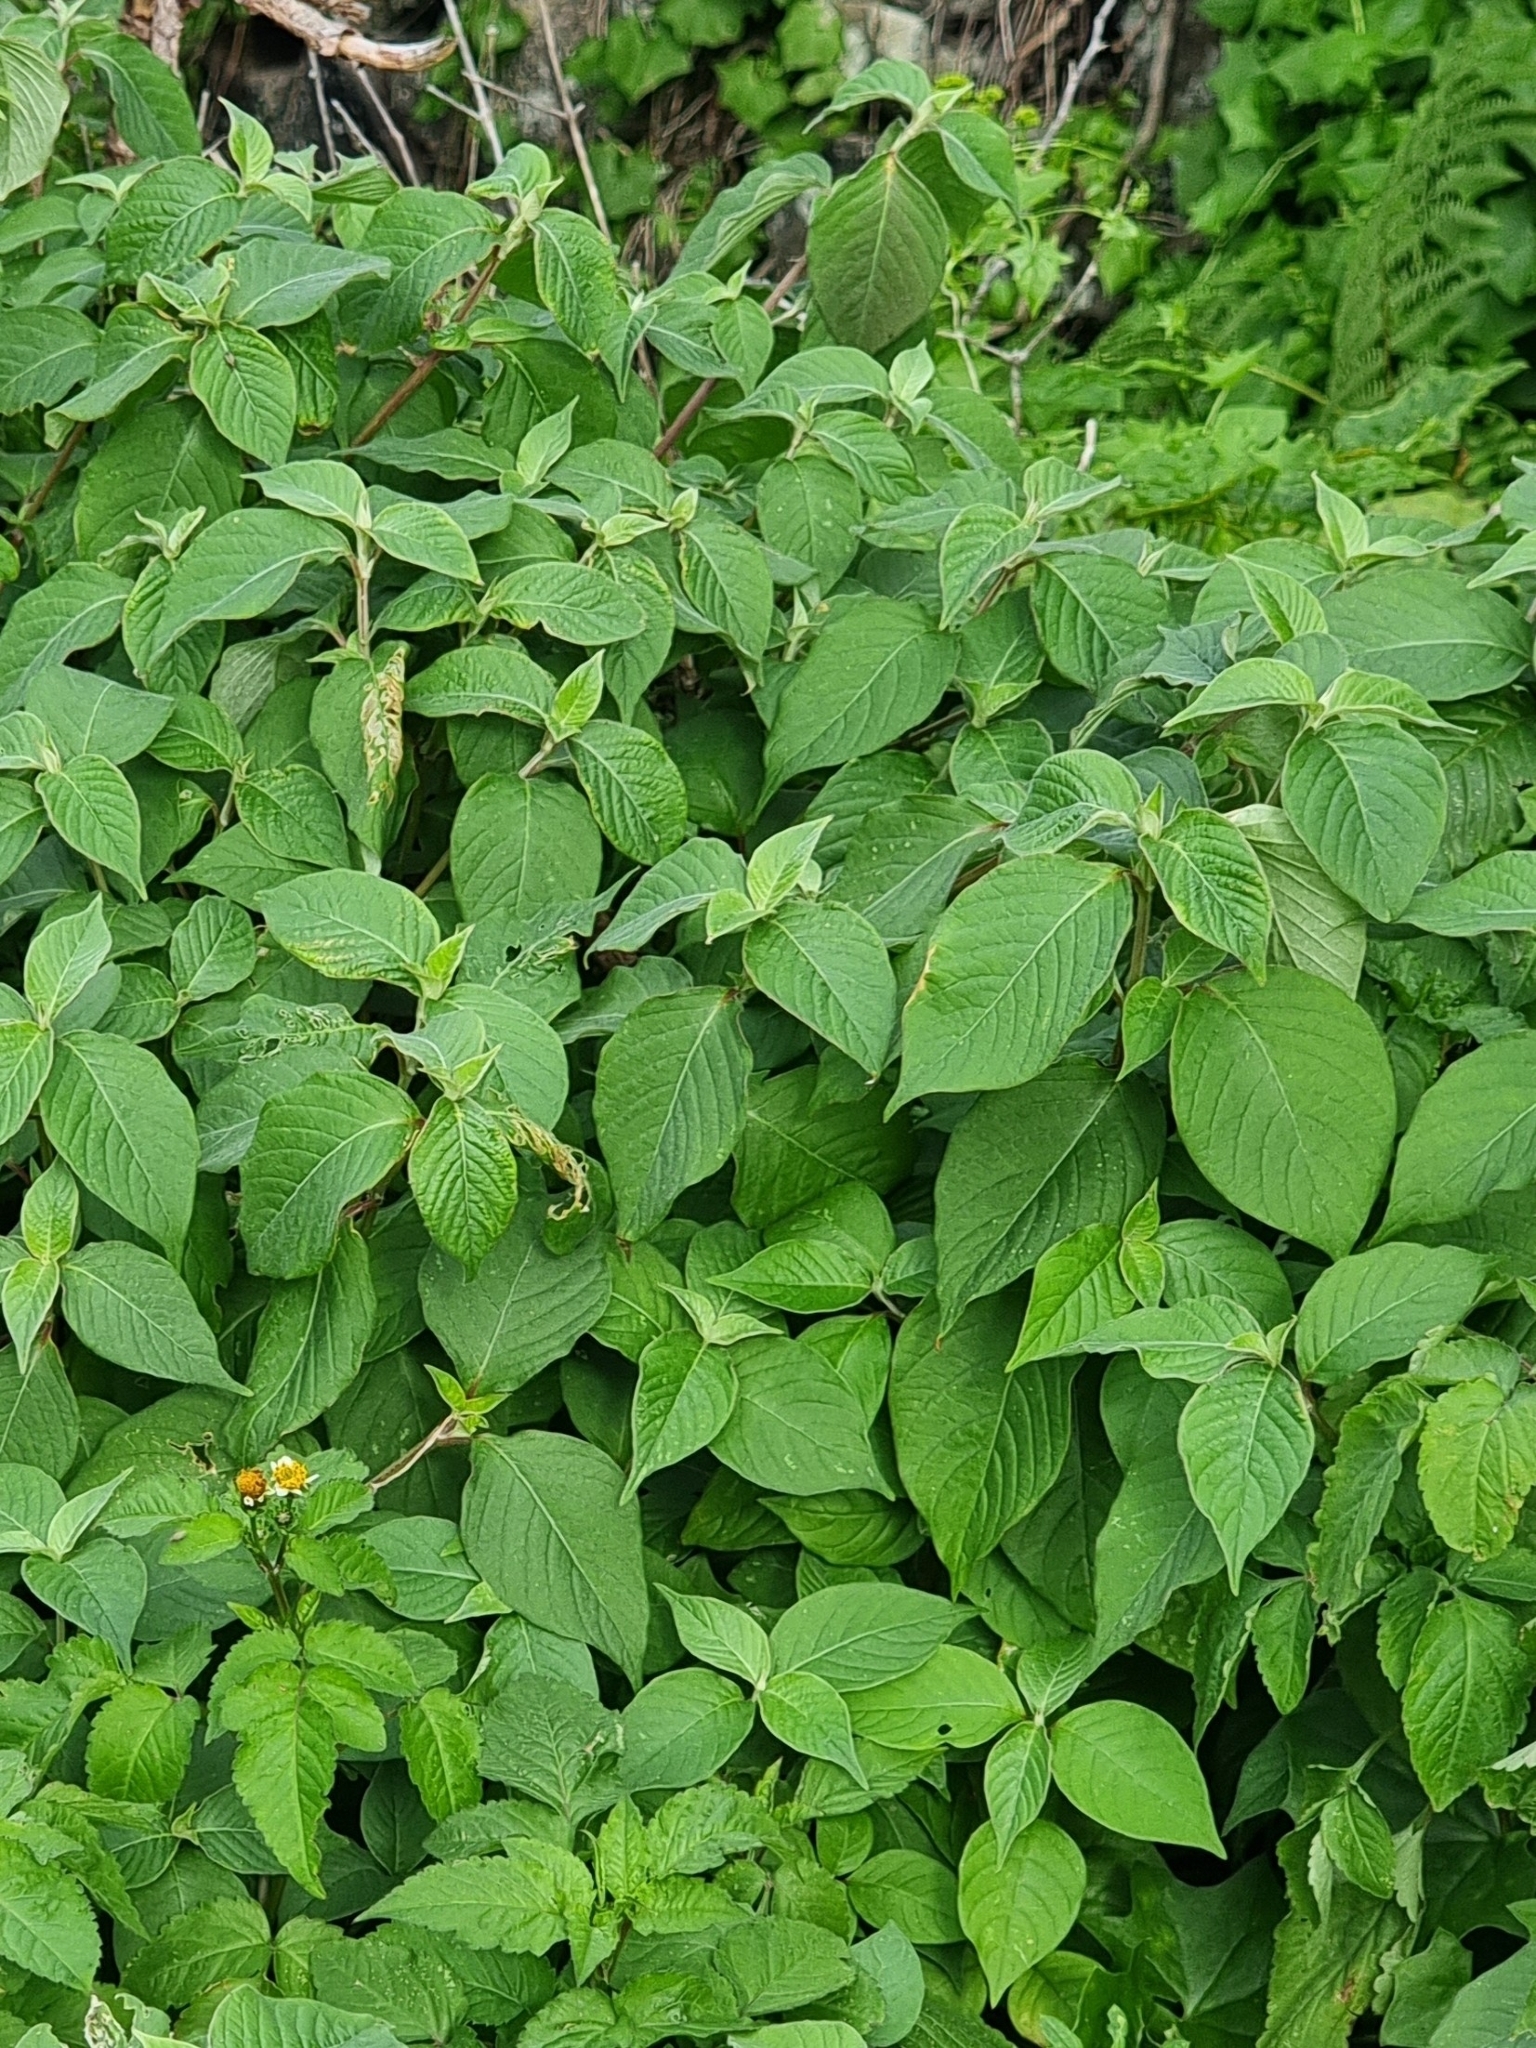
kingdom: Plantae
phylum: Tracheophyta
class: Magnoliopsida
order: Caryophyllales
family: Amaranthaceae
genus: Achyranthes
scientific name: Achyranthes aspera
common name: Devil's horsewhip
